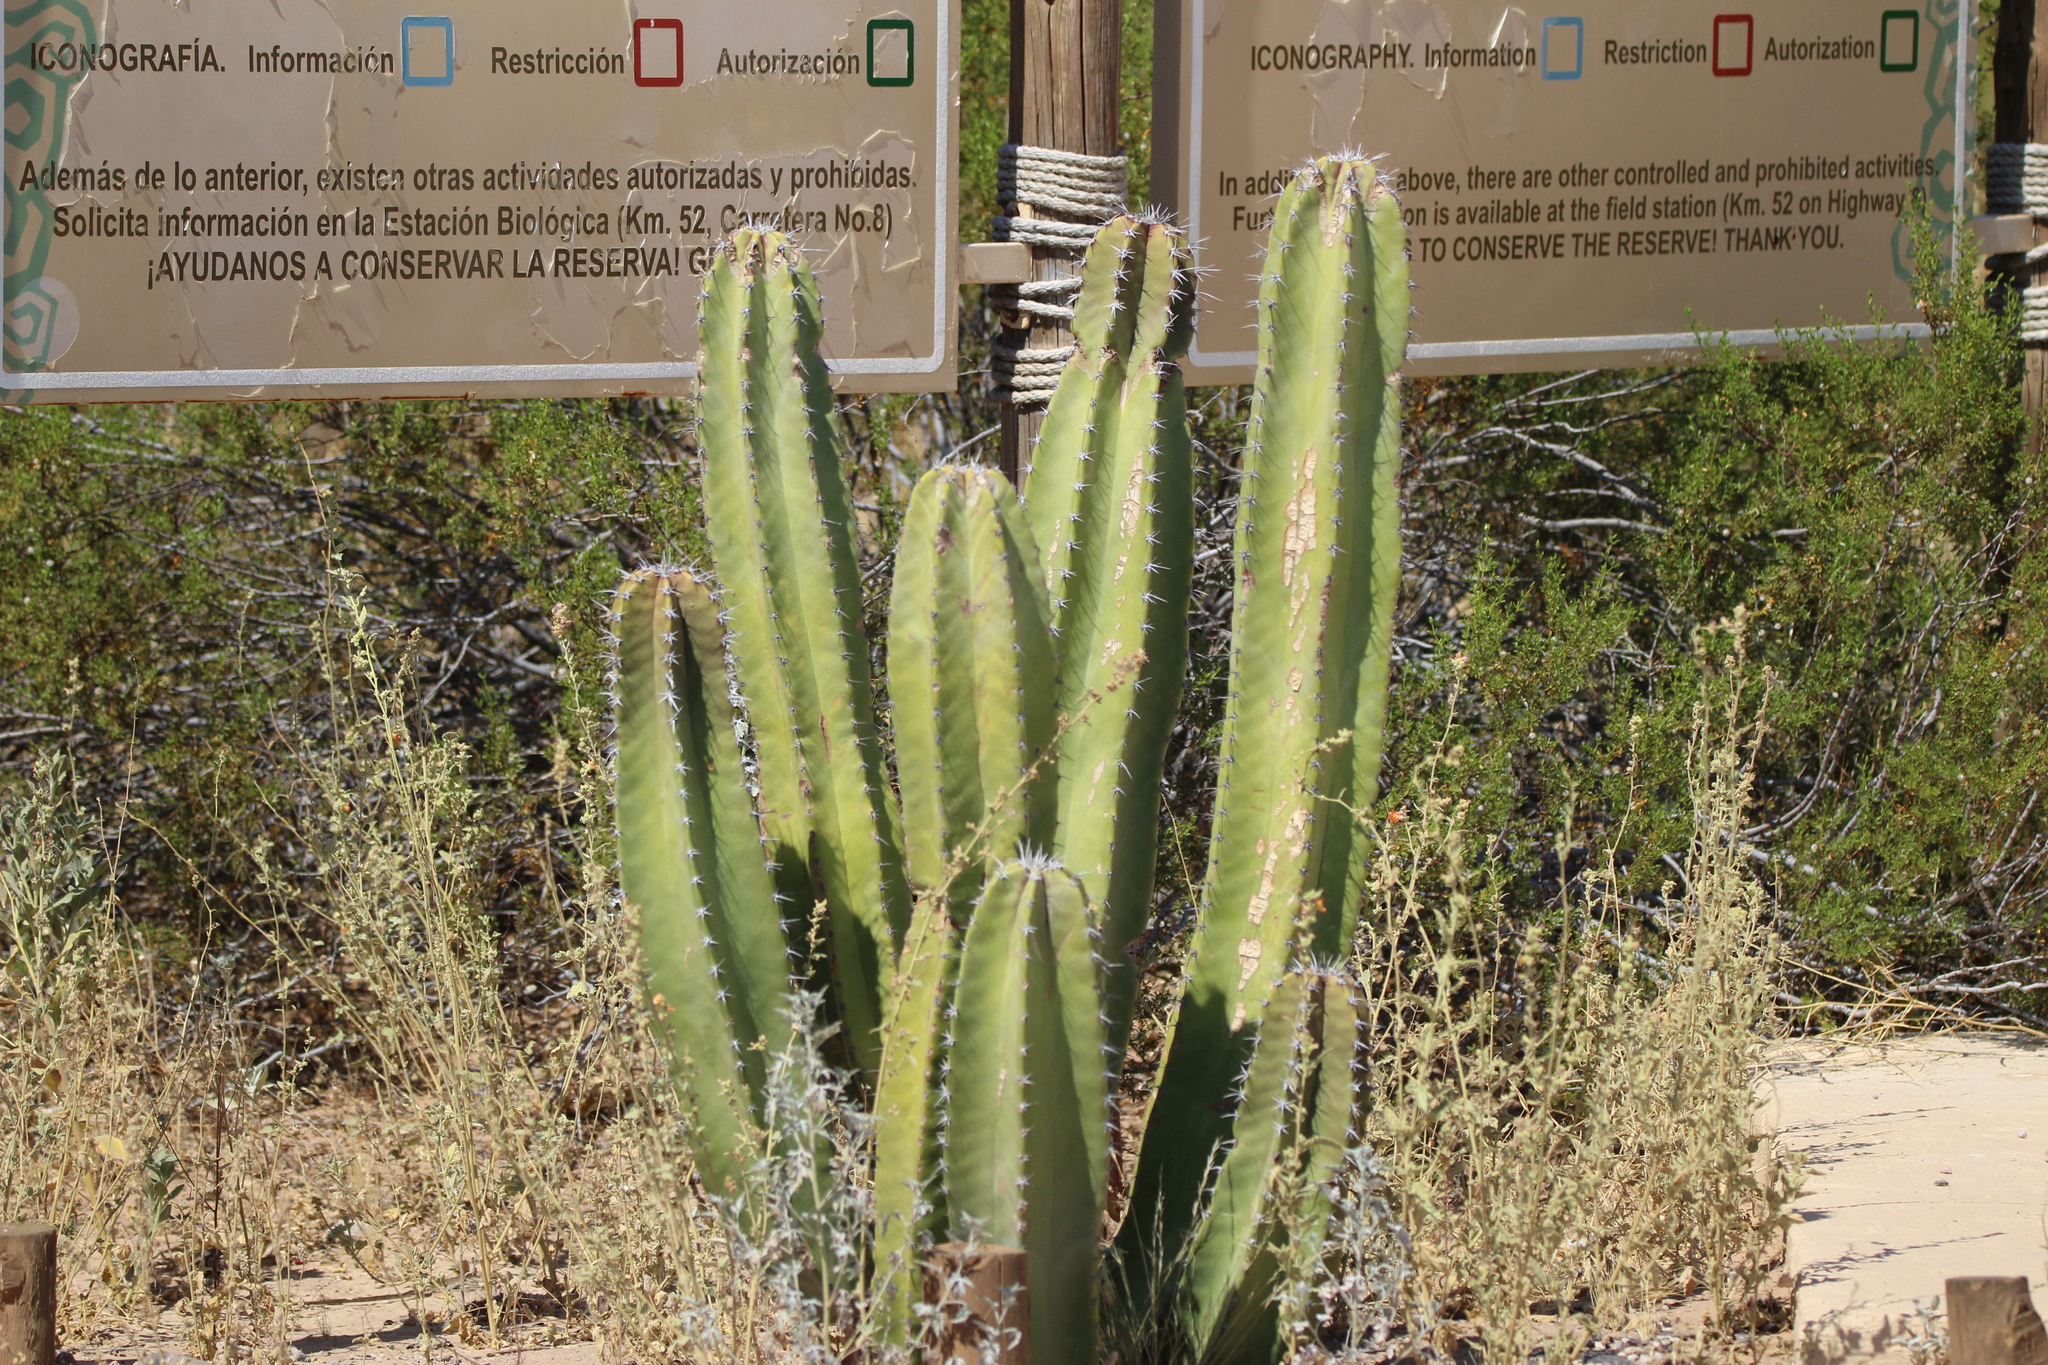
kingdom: Plantae
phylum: Tracheophyta
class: Magnoliopsida
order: Caryophyllales
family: Cactaceae
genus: Pachycereus
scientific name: Pachycereus schottii
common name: Senita cactus
